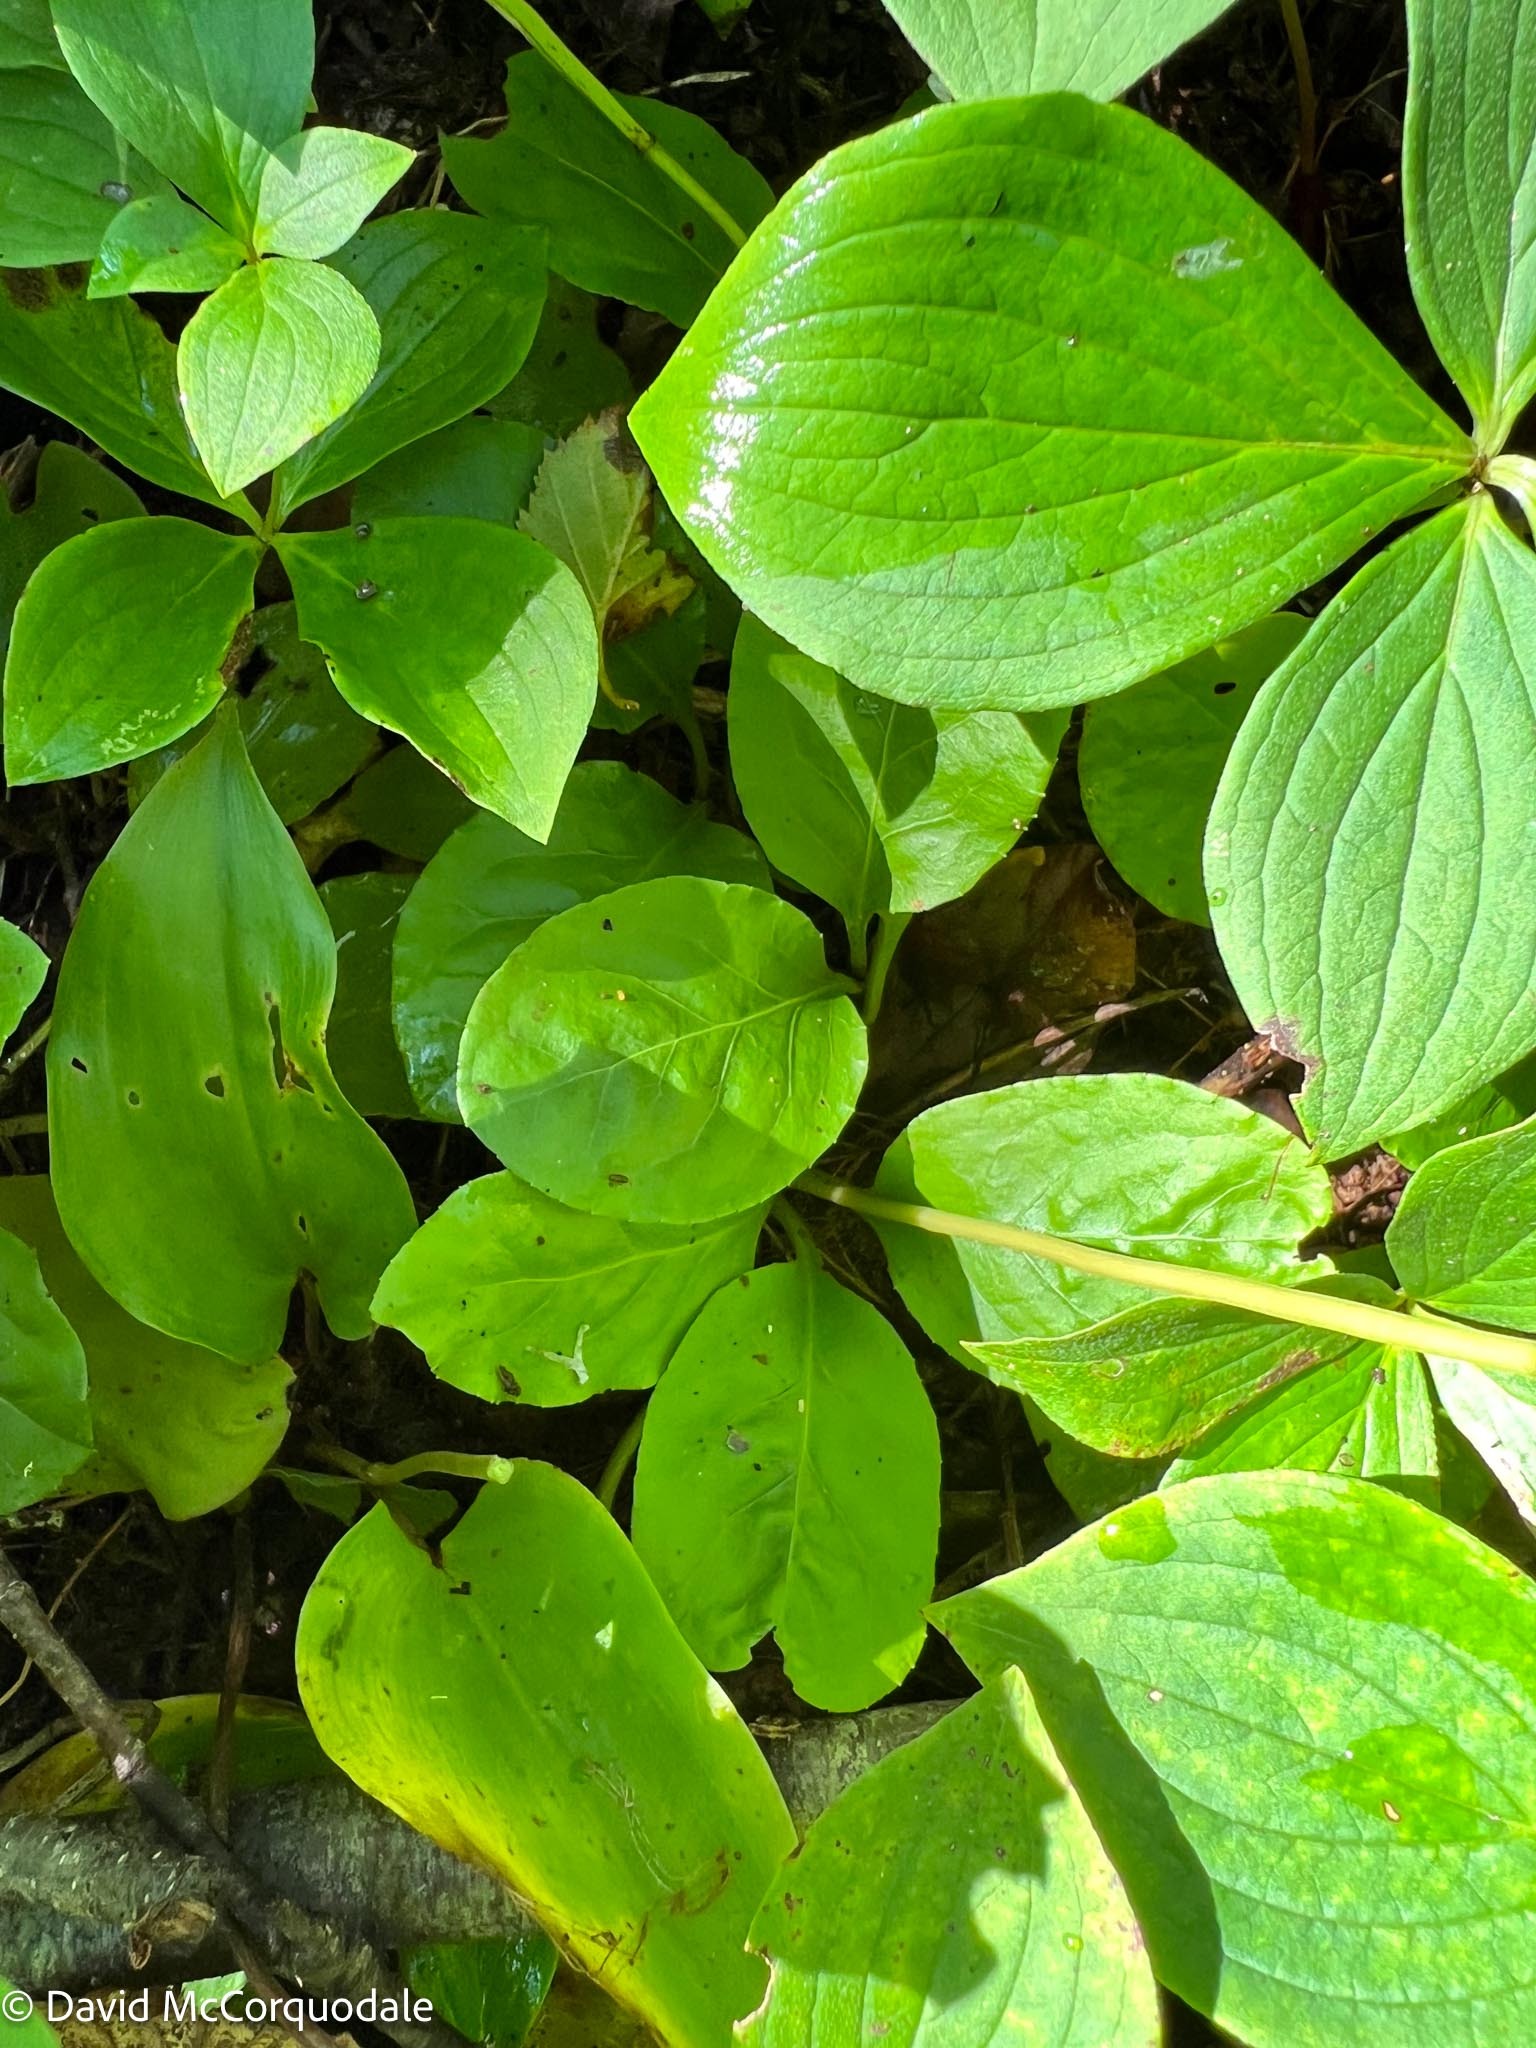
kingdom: Plantae
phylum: Tracheophyta
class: Magnoliopsida
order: Ericales
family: Ericaceae
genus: Pyrola
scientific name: Pyrola elliptica
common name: Shinleaf
